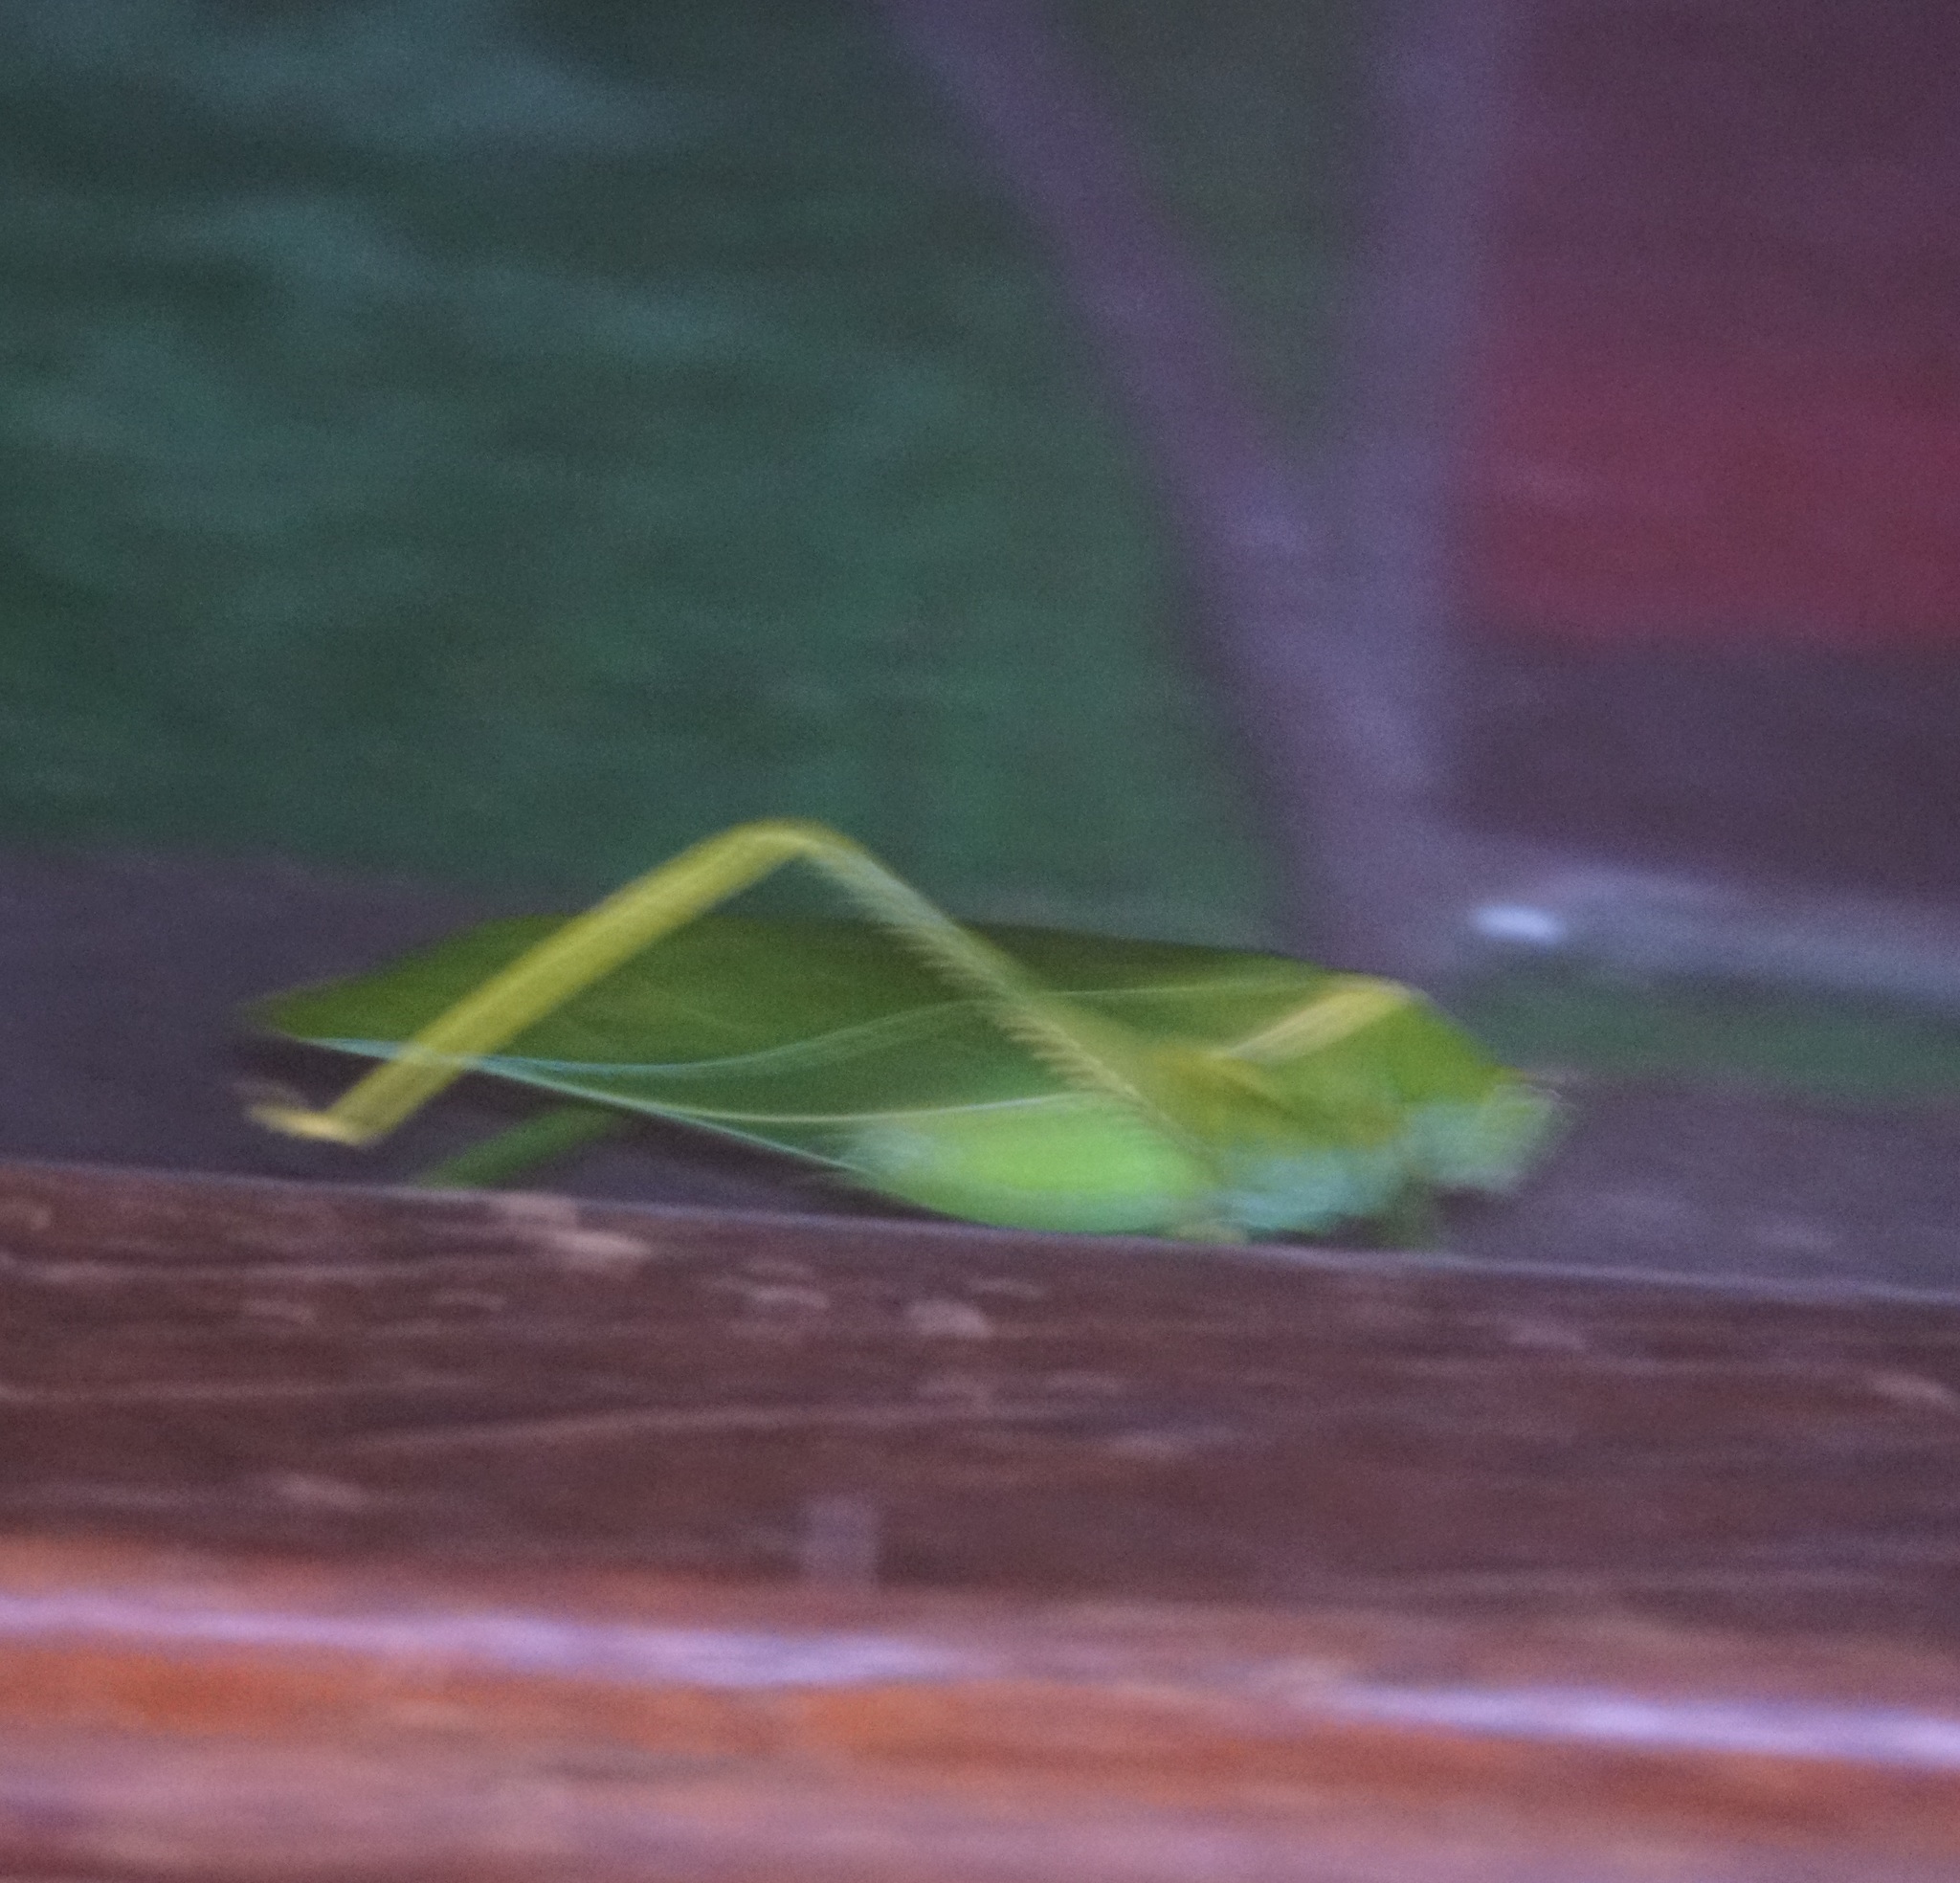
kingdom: Animalia
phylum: Arthropoda
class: Insecta
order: Orthoptera
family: Tettigoniidae
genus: Paracaedicia
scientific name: Paracaedicia serrata
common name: Serrated bush katydid
